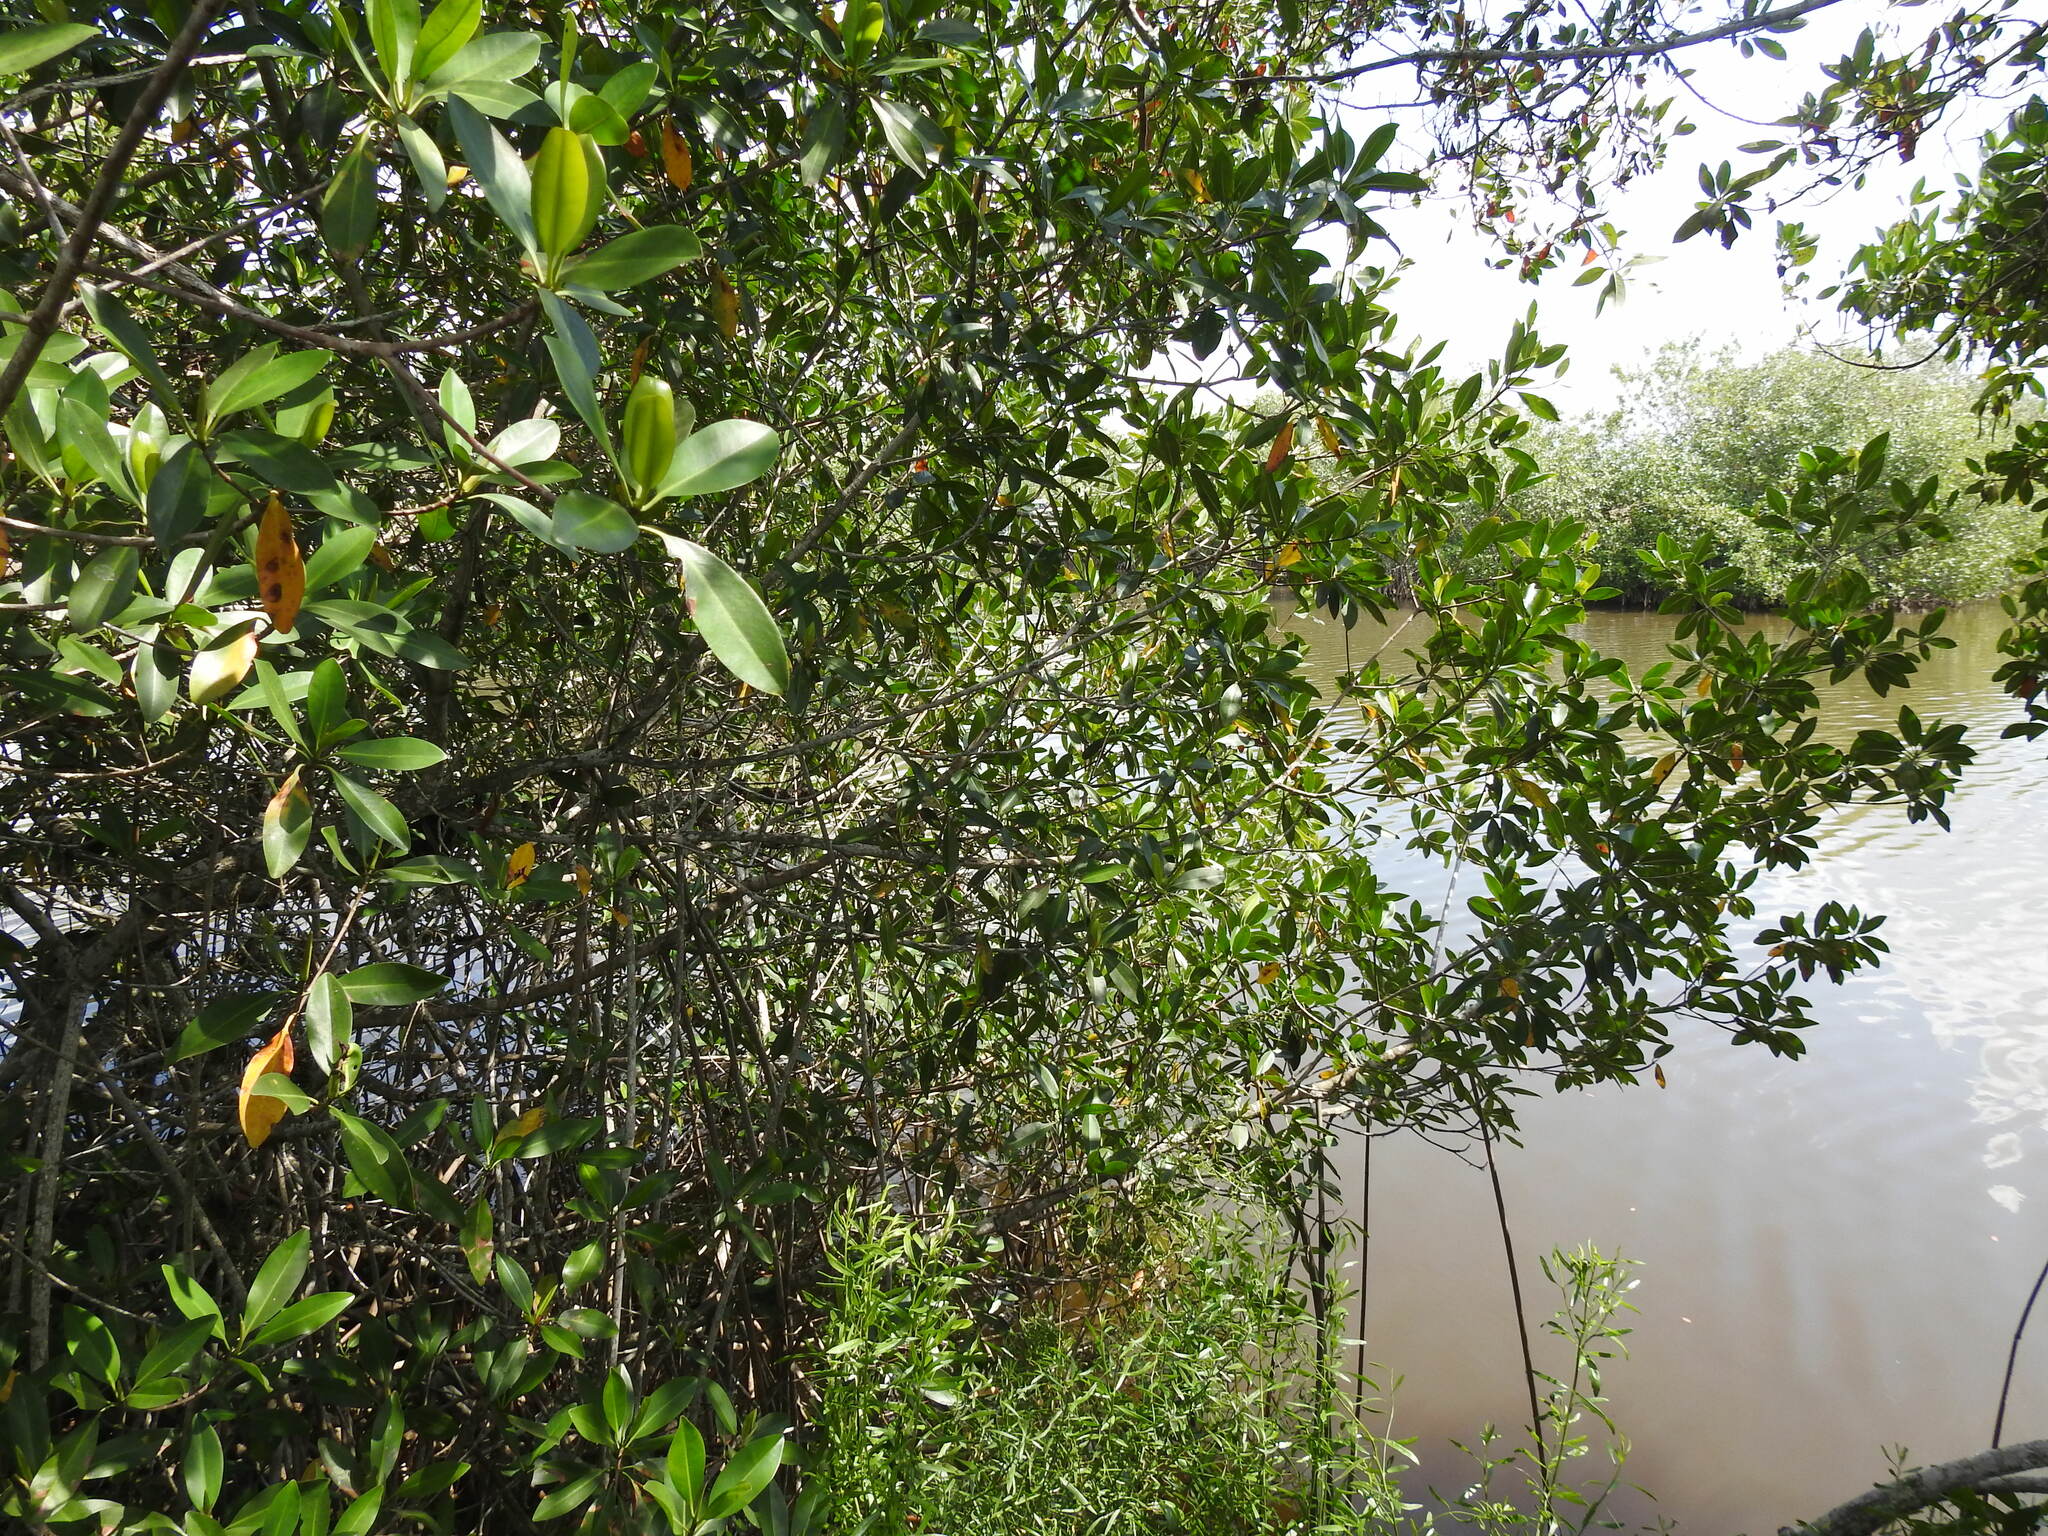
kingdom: Plantae
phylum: Tracheophyta
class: Magnoliopsida
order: Malpighiales
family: Rhizophoraceae
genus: Rhizophora
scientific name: Rhizophora mangle
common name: Red mangrove
